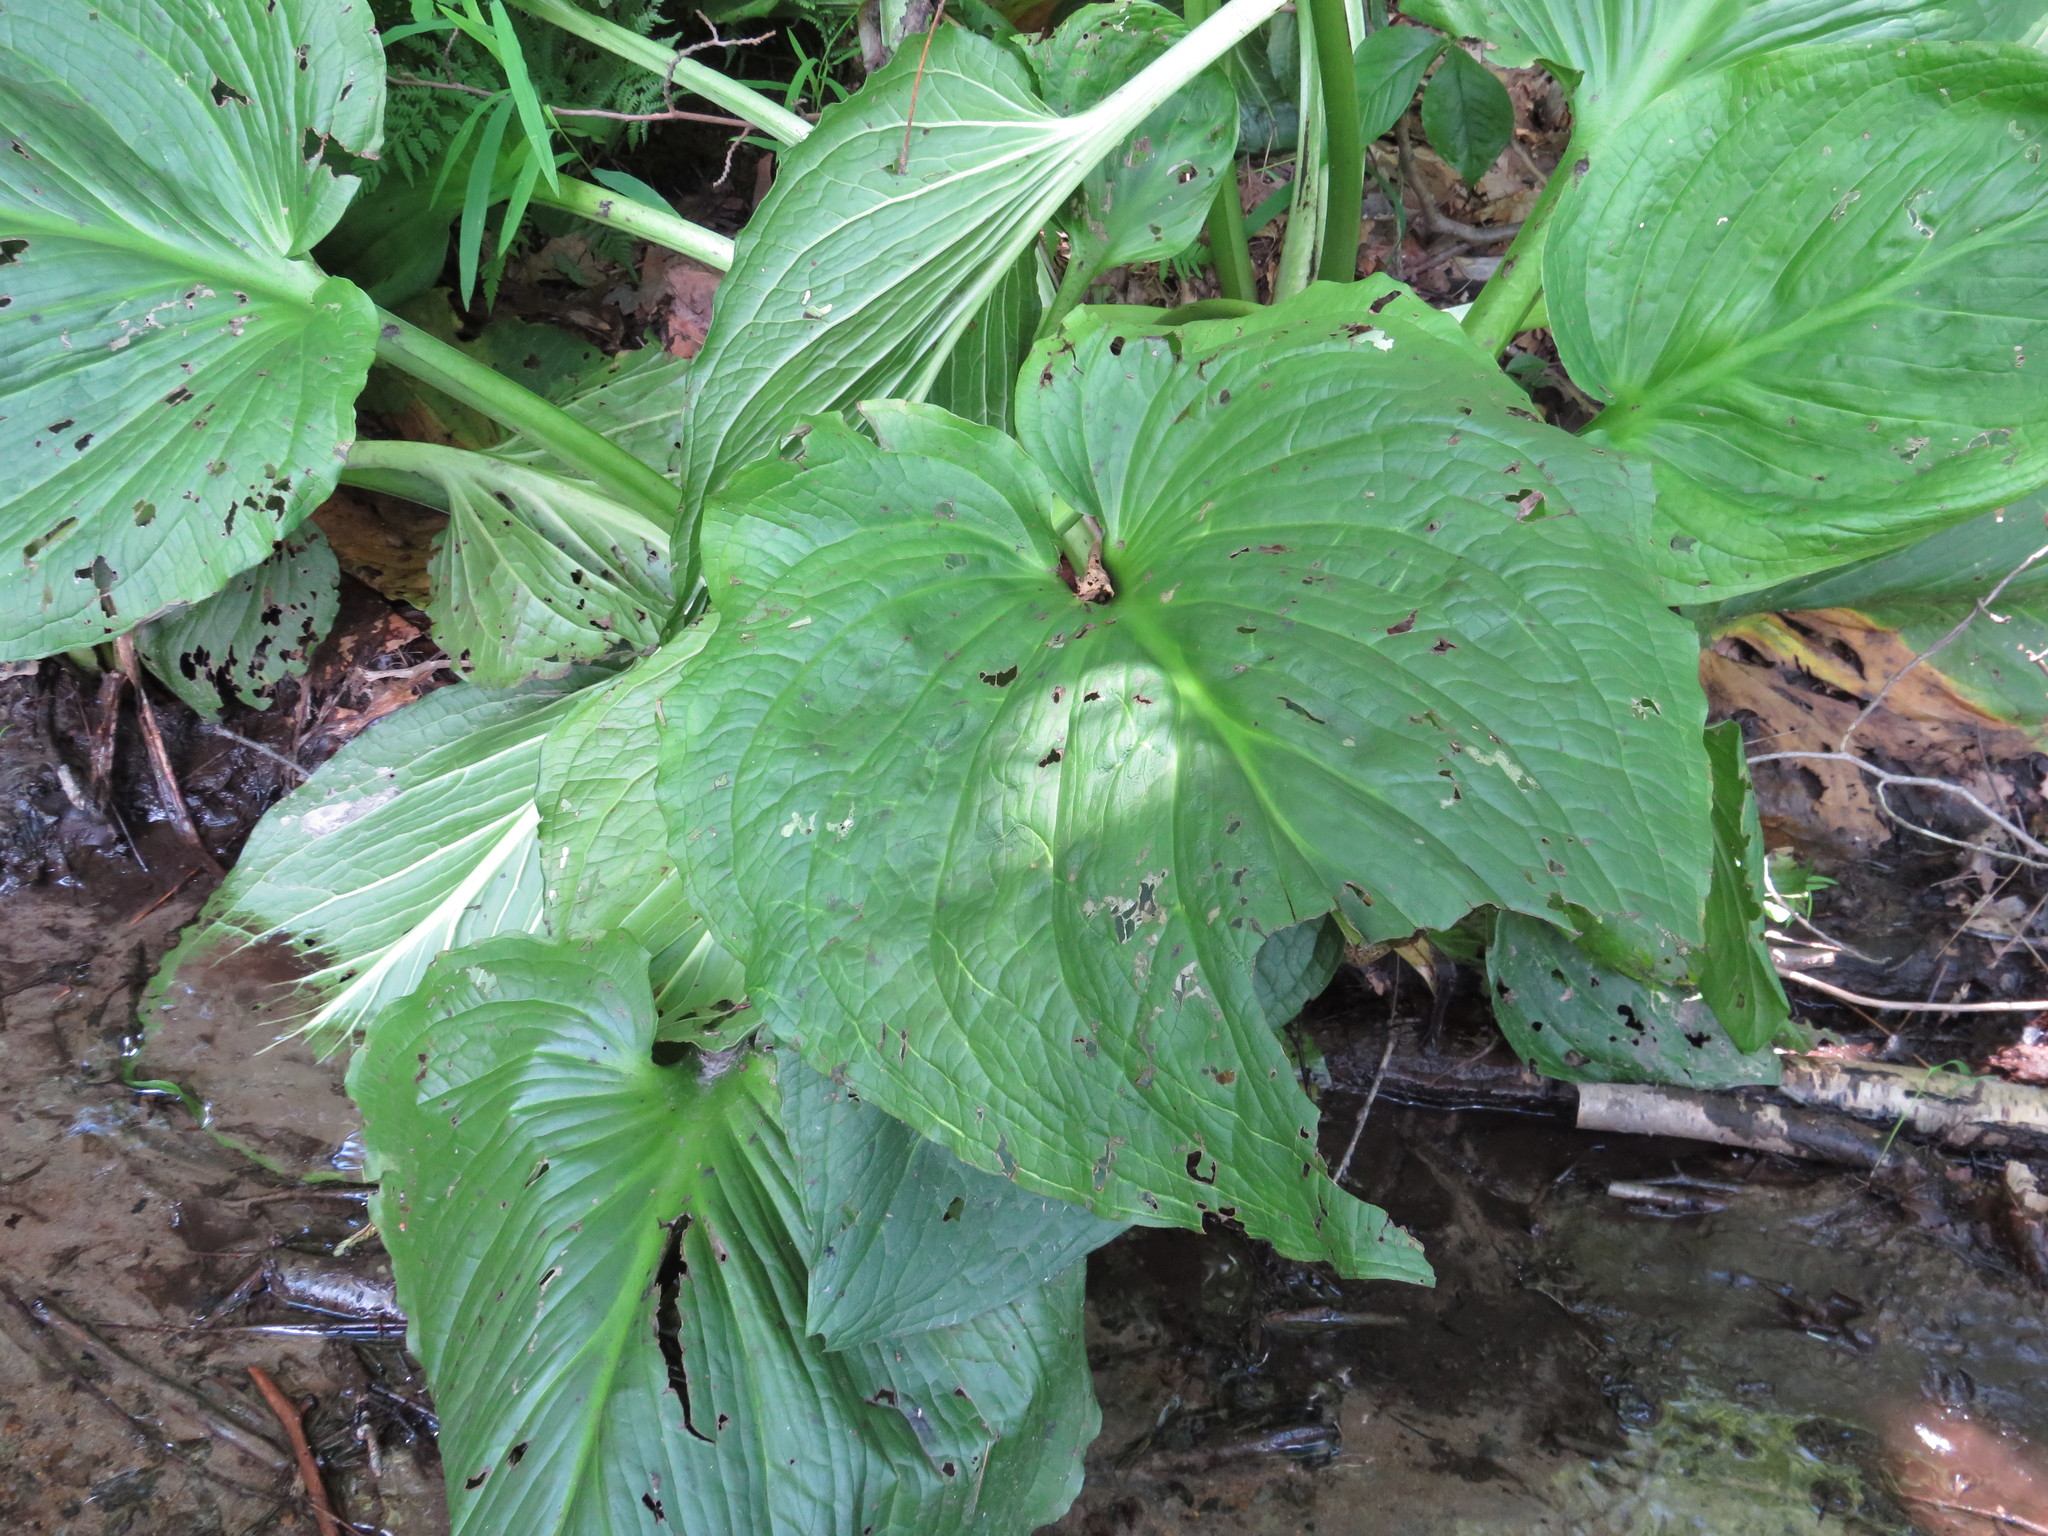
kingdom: Plantae
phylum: Tracheophyta
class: Liliopsida
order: Alismatales
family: Araceae
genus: Symplocarpus
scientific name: Symplocarpus foetidus
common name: Eastern skunk cabbage
